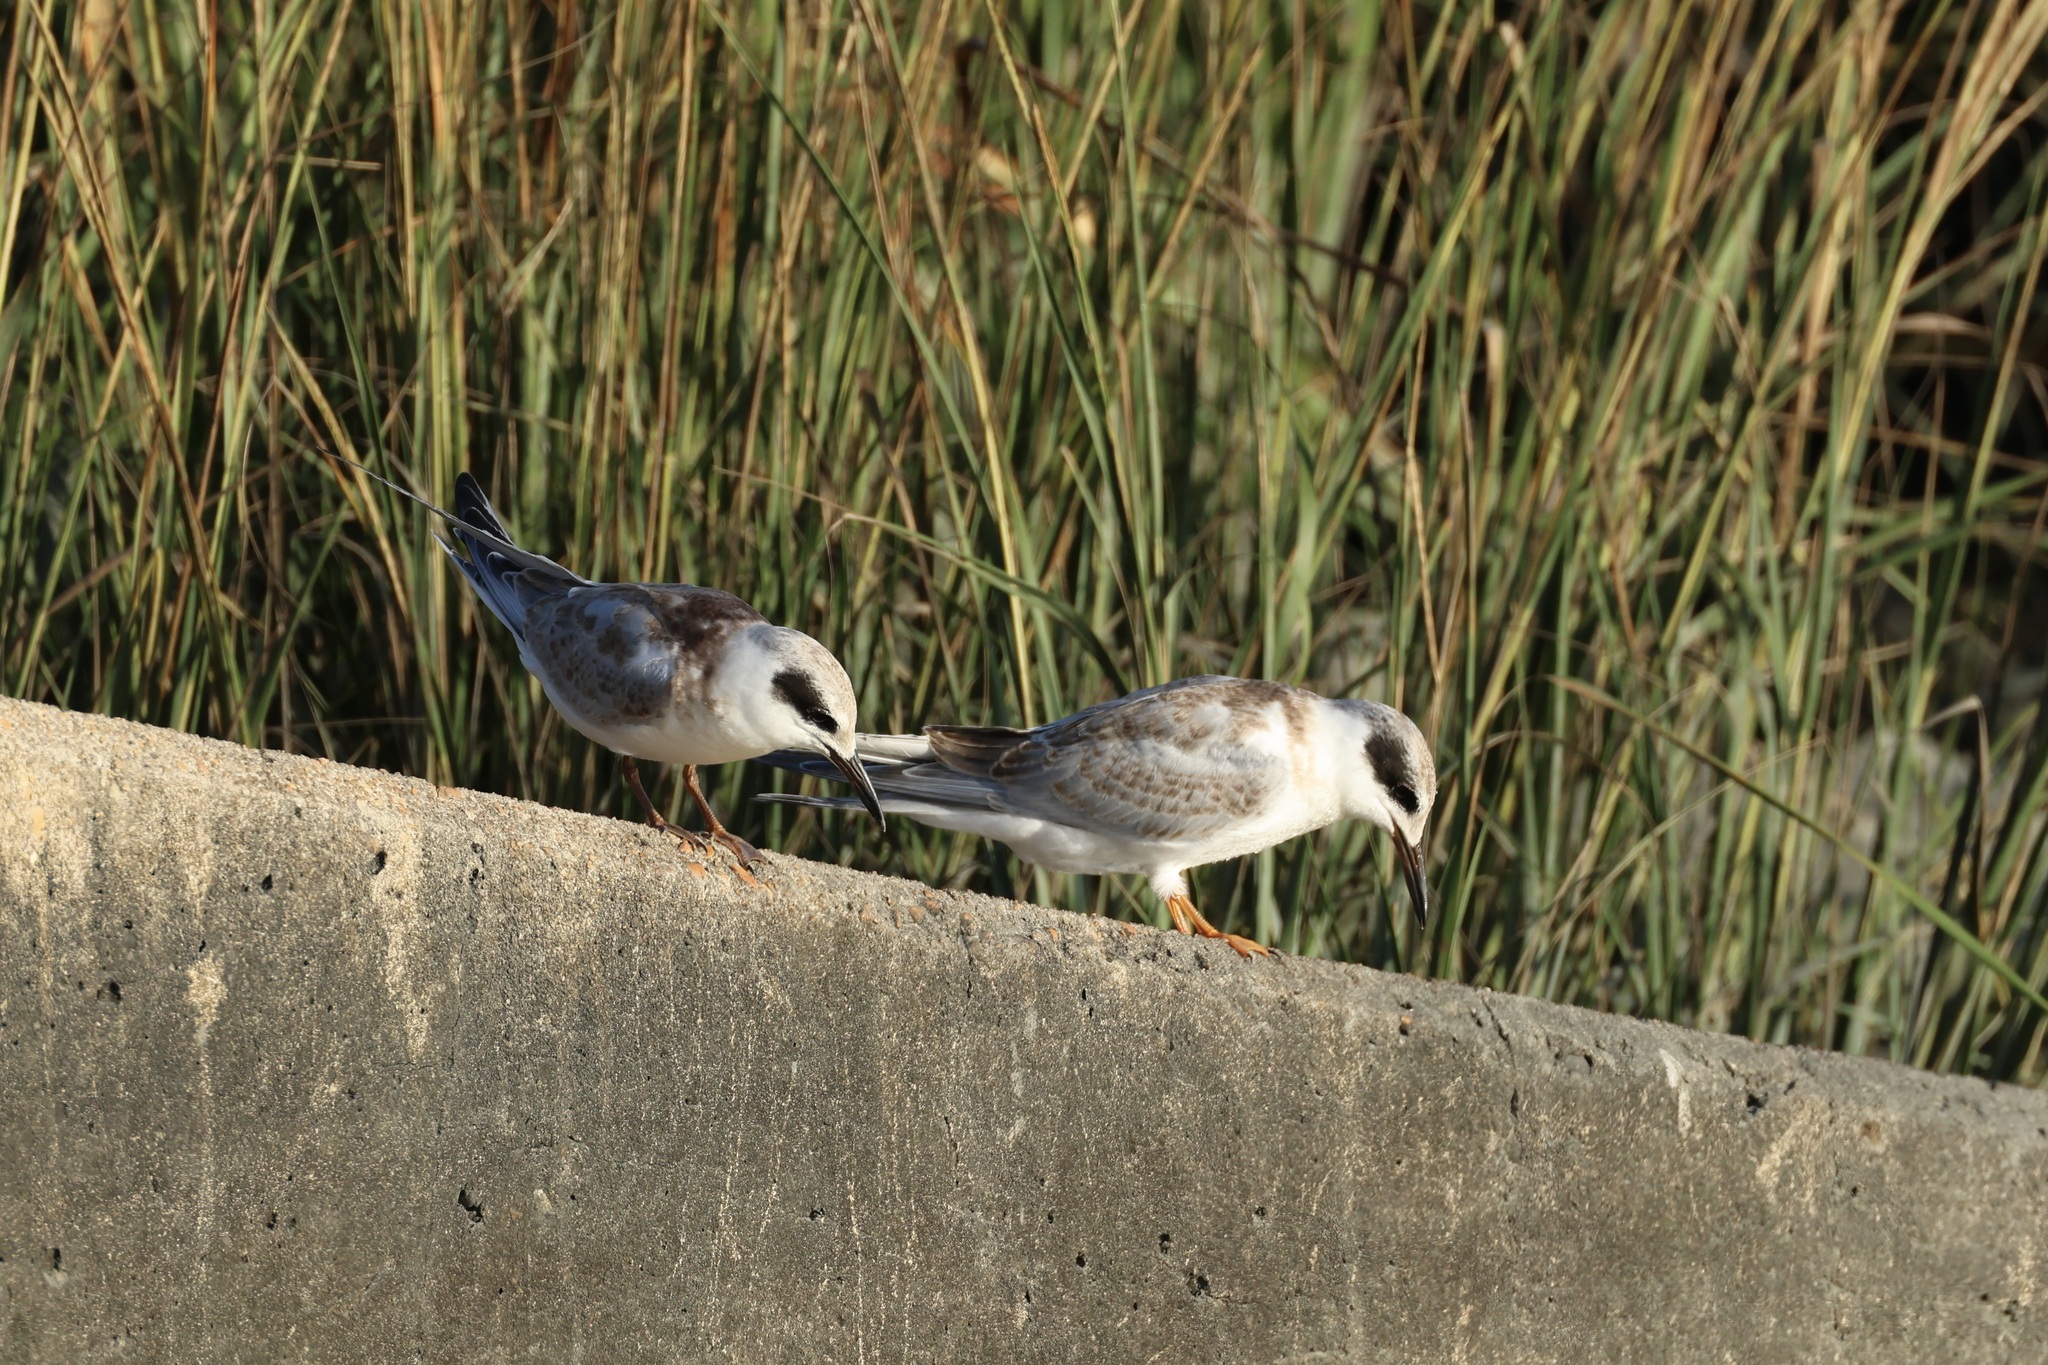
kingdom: Animalia
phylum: Chordata
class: Aves
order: Charadriiformes
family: Laridae
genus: Sterna
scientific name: Sterna forsteri
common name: Forster's tern
